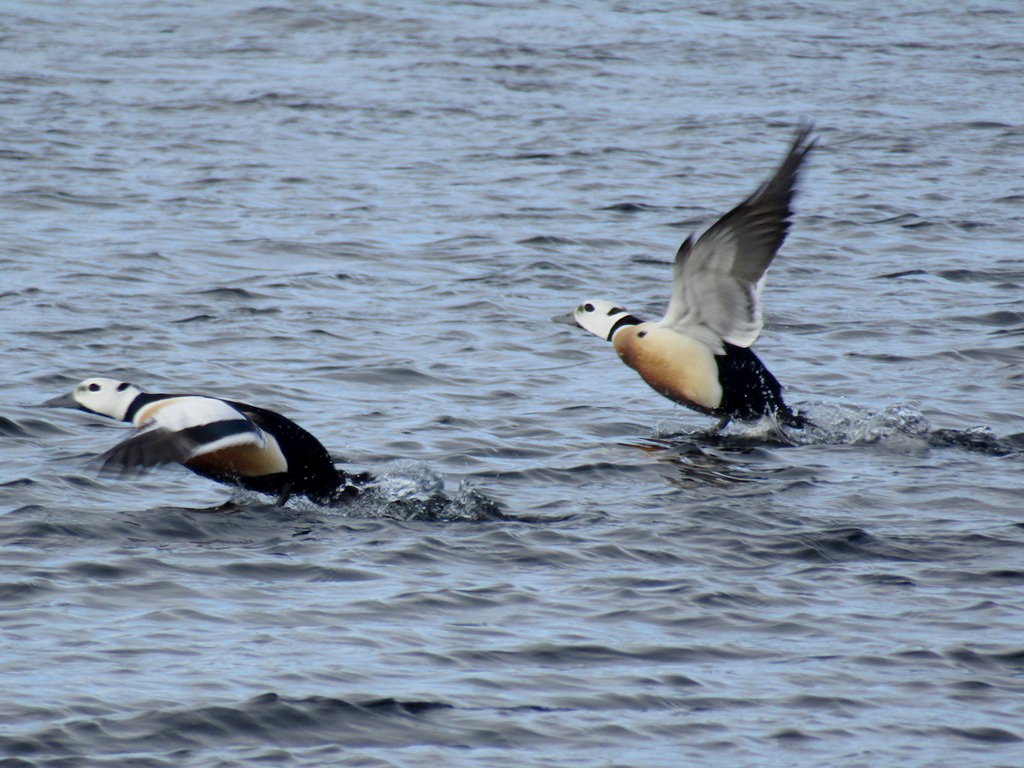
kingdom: Animalia
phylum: Chordata
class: Aves
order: Anseriformes
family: Anatidae
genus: Polysticta
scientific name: Polysticta stelleri
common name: Steller's eider
